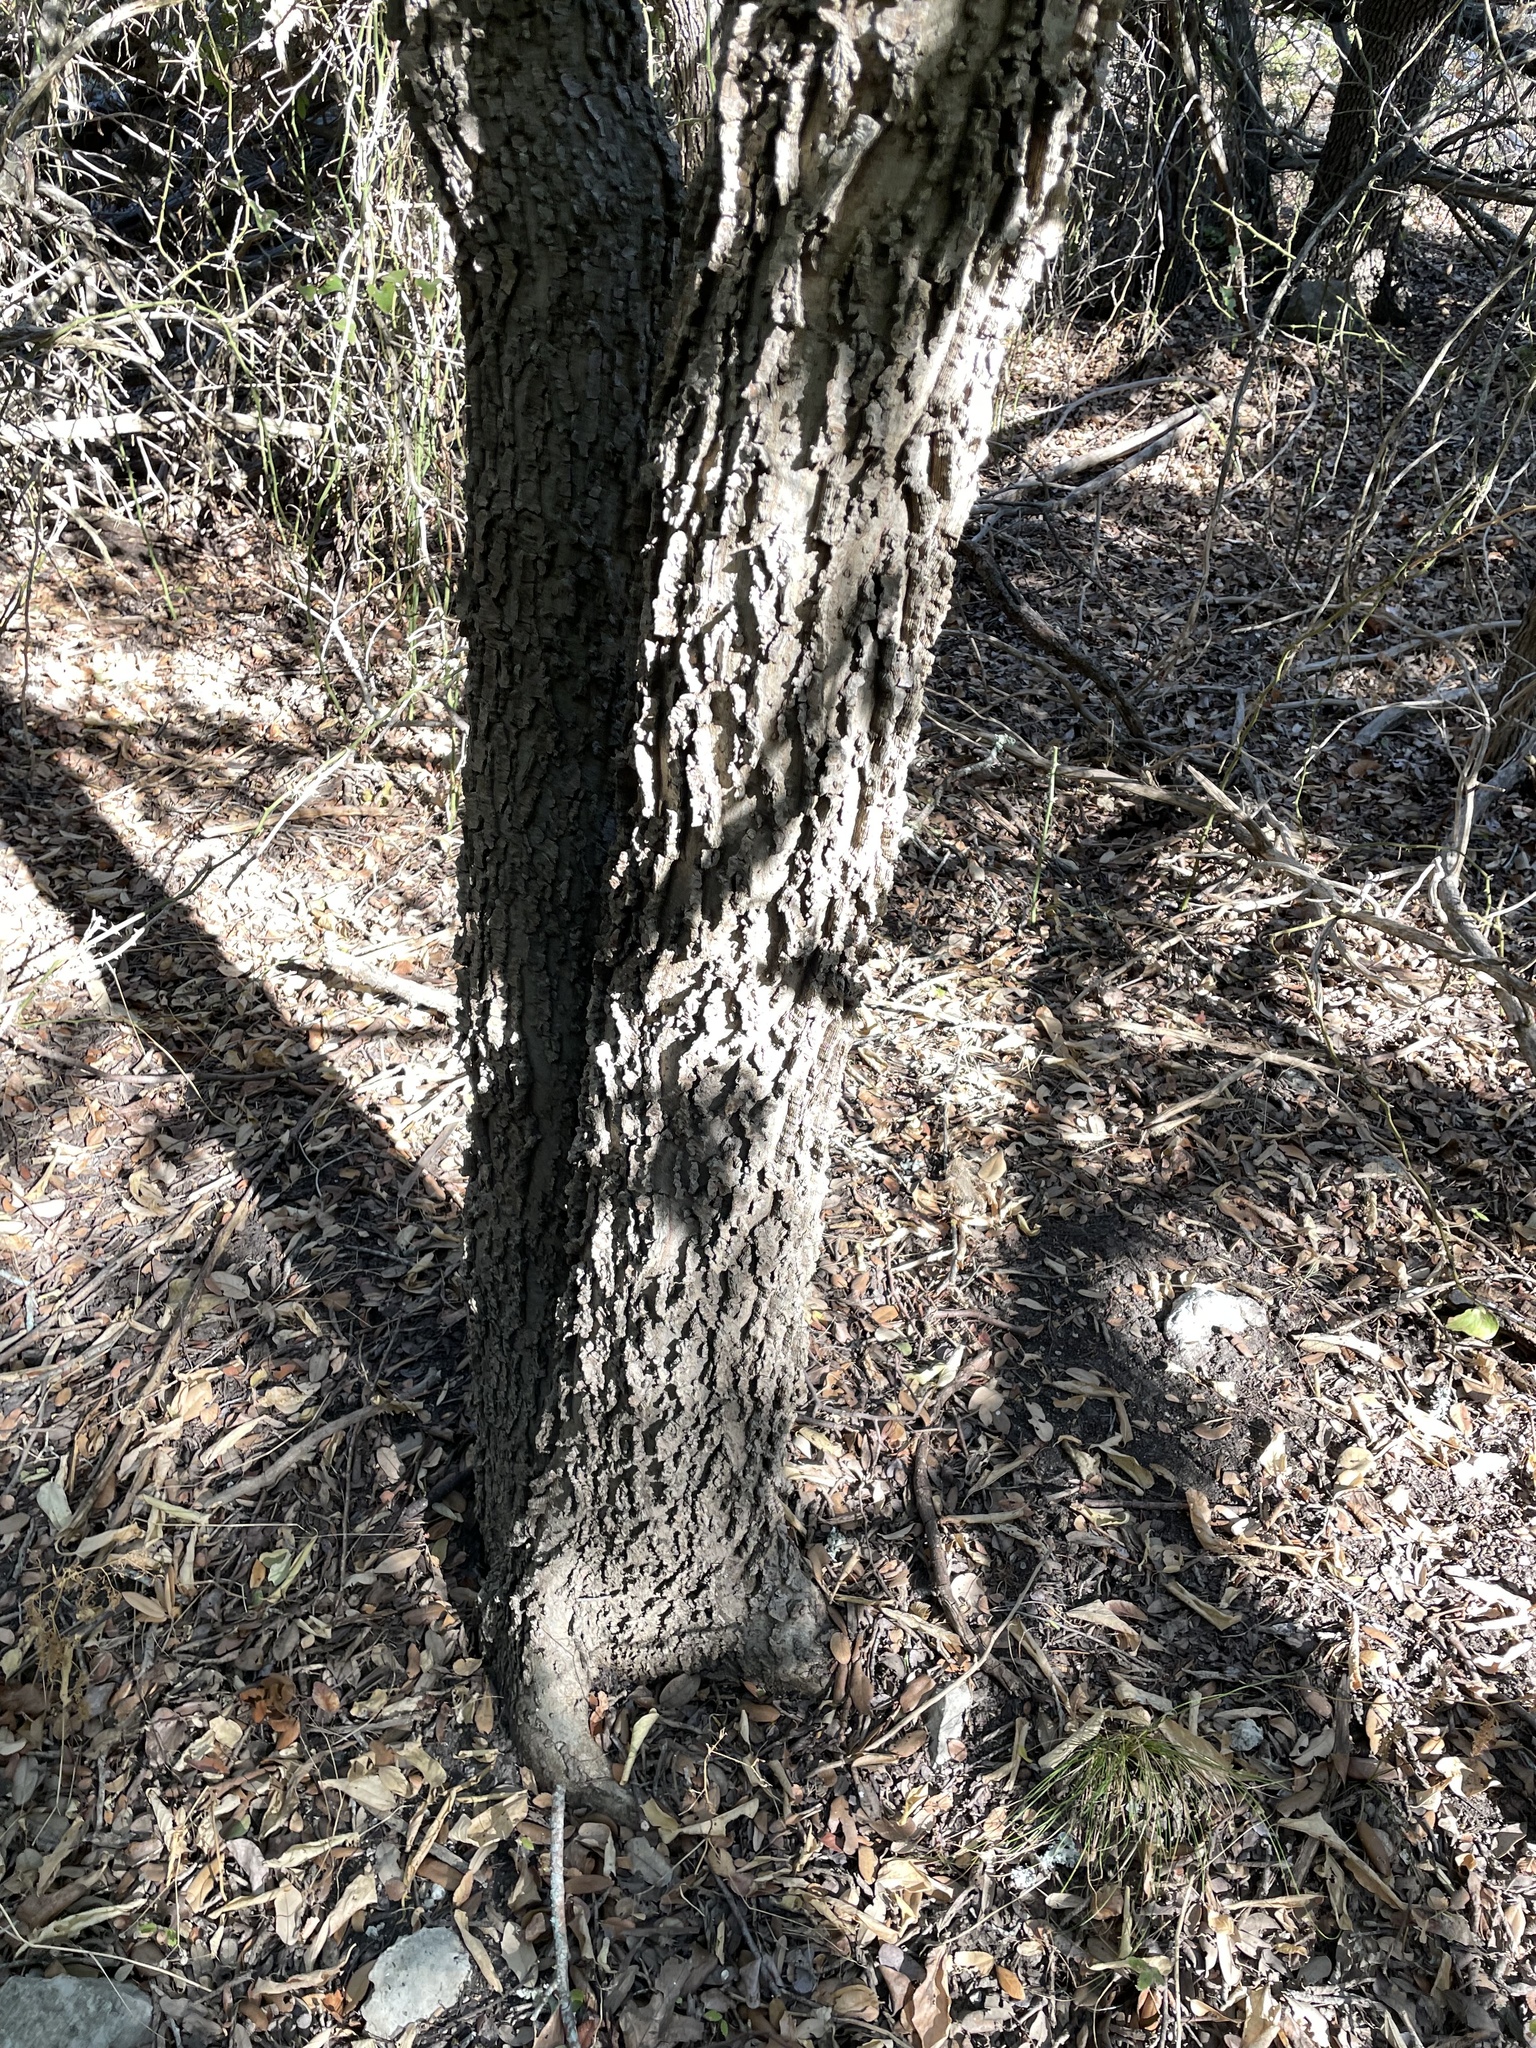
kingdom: Plantae
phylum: Tracheophyta
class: Magnoliopsida
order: Rosales
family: Cannabaceae
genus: Celtis
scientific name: Celtis laevigata
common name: Sugarberry
